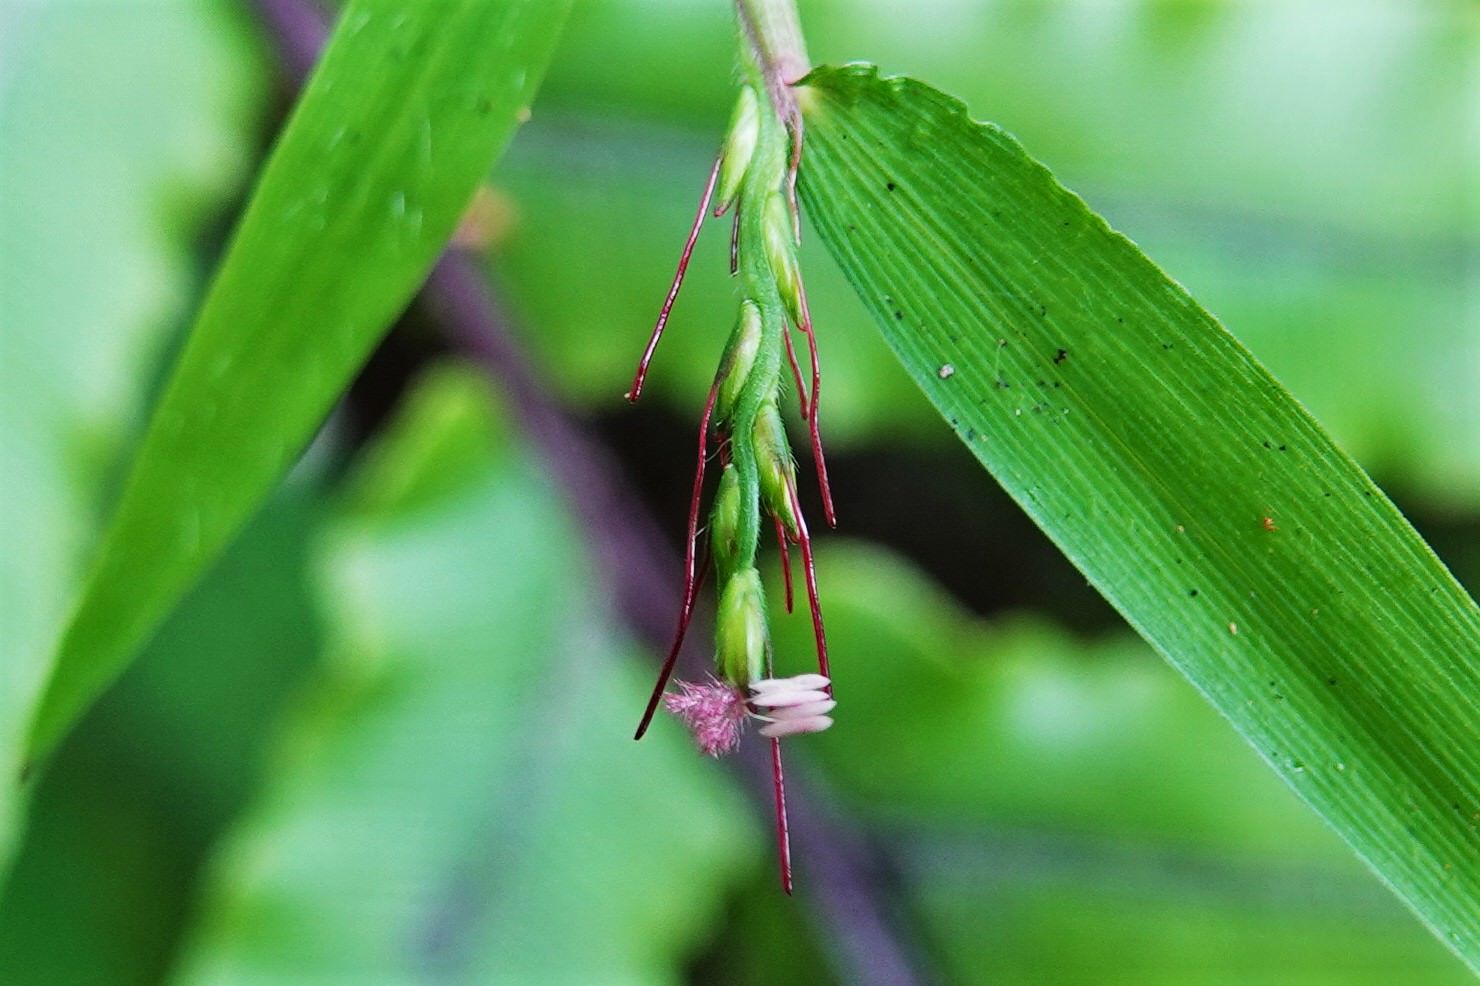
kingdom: Plantae
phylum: Tracheophyta
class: Liliopsida
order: Poales
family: Poaceae
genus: Oplismenus
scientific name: Oplismenus hirtellus
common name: Basketgrass
